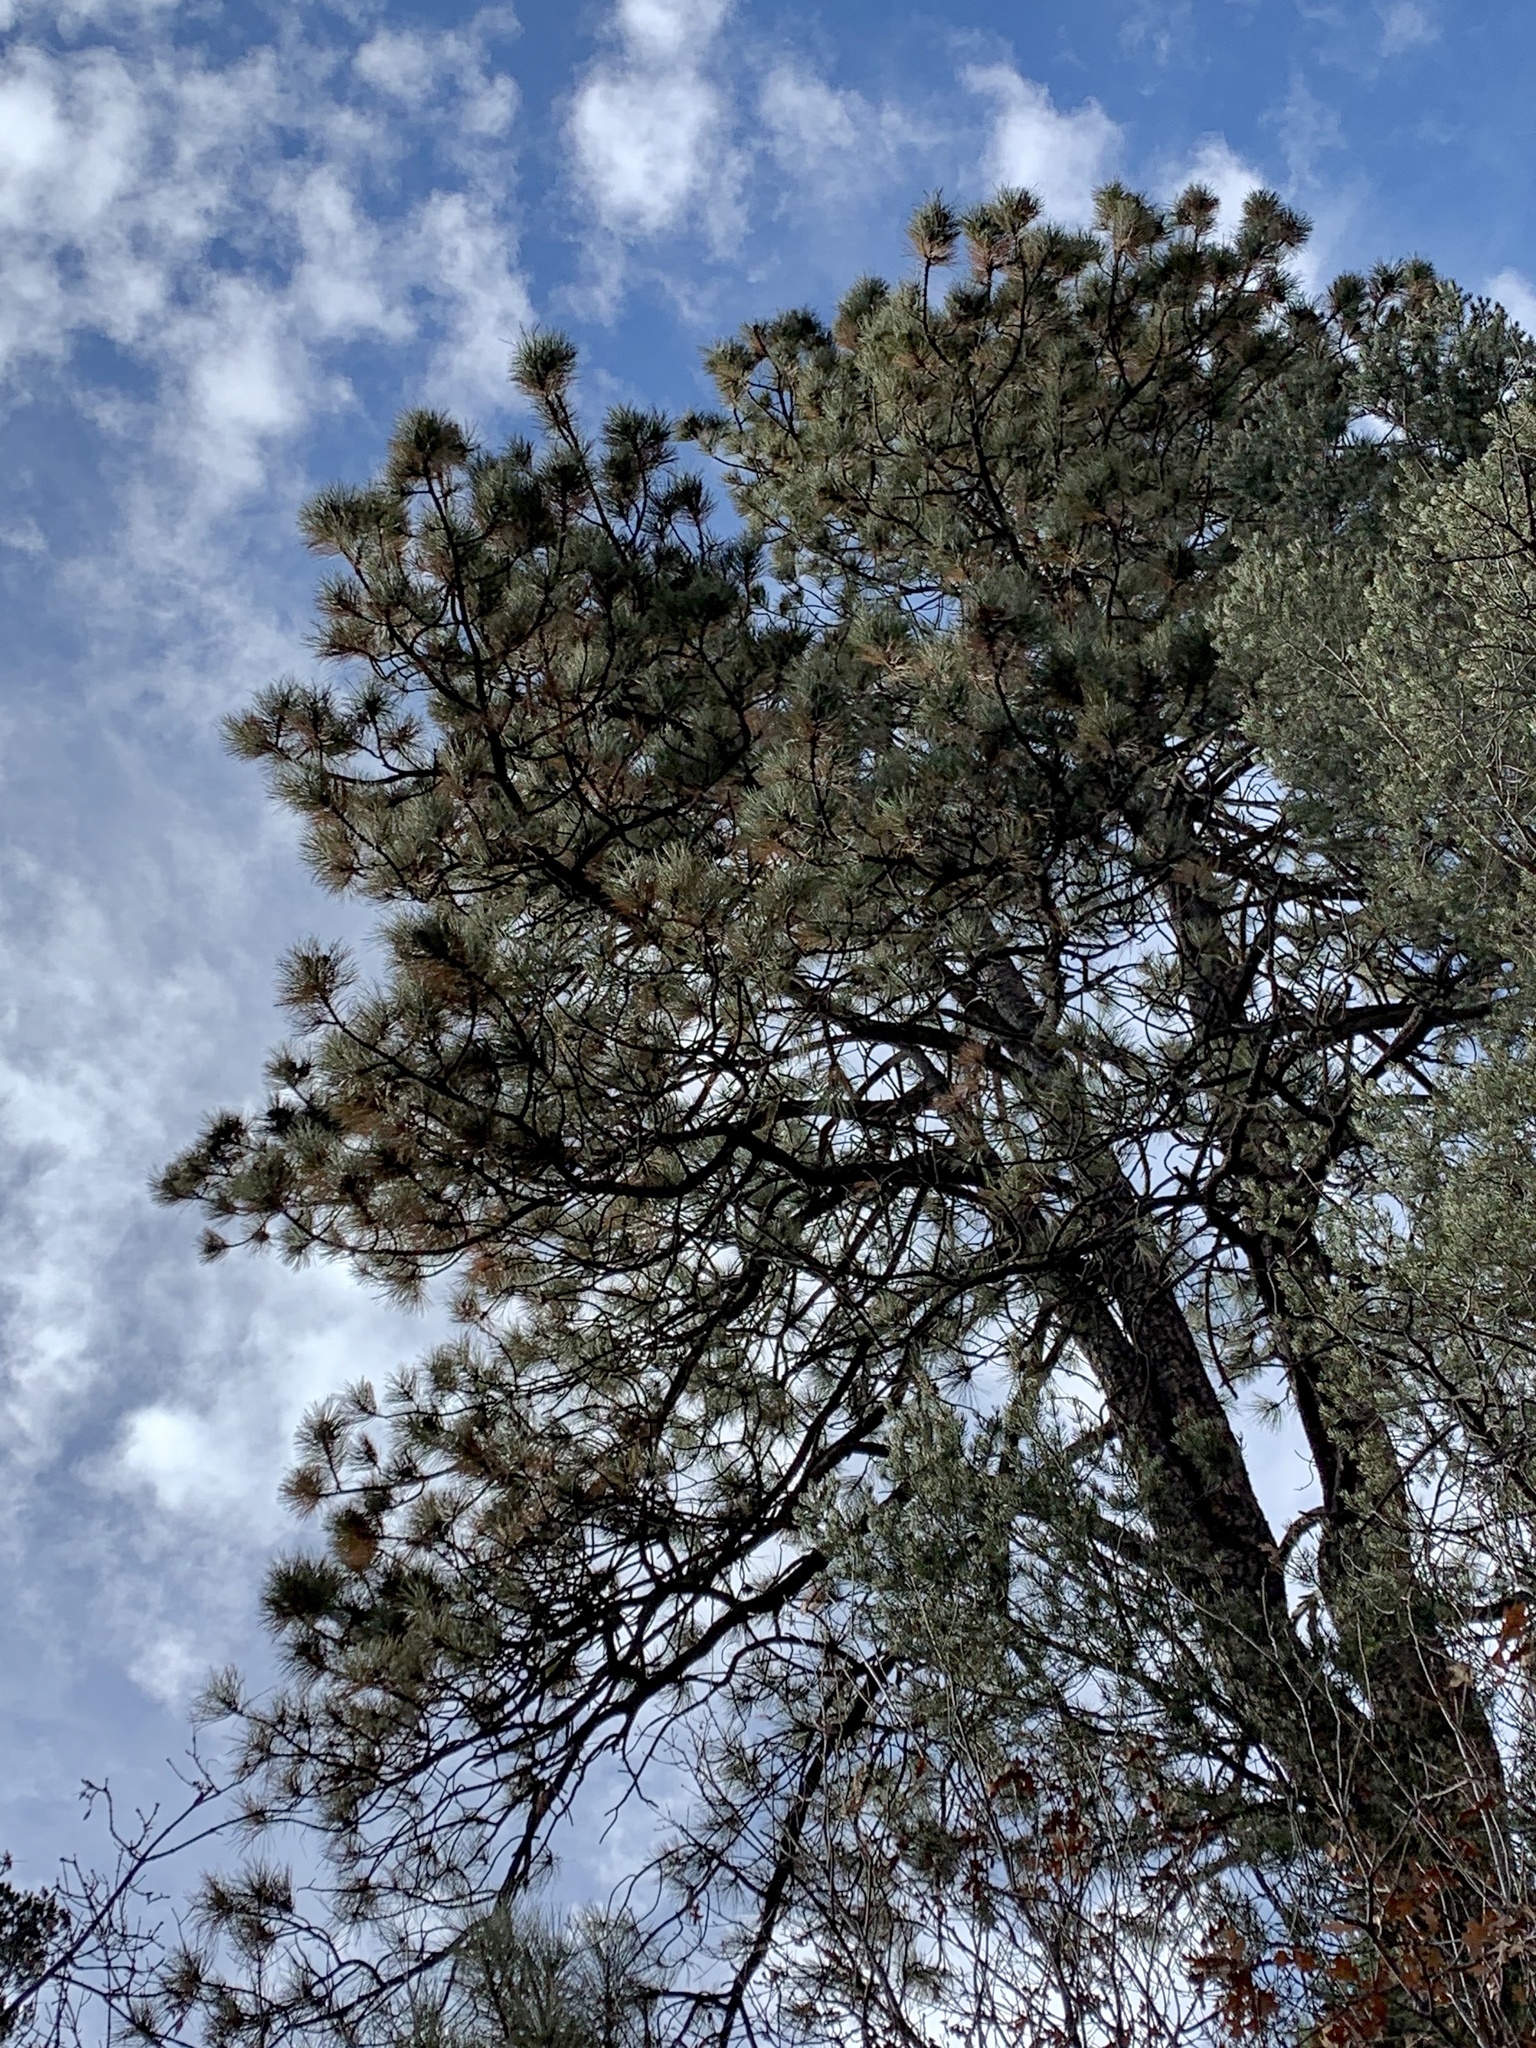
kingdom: Plantae
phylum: Tracheophyta
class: Pinopsida
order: Pinales
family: Pinaceae
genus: Pinus
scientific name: Pinus ponderosa
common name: Western yellow-pine
